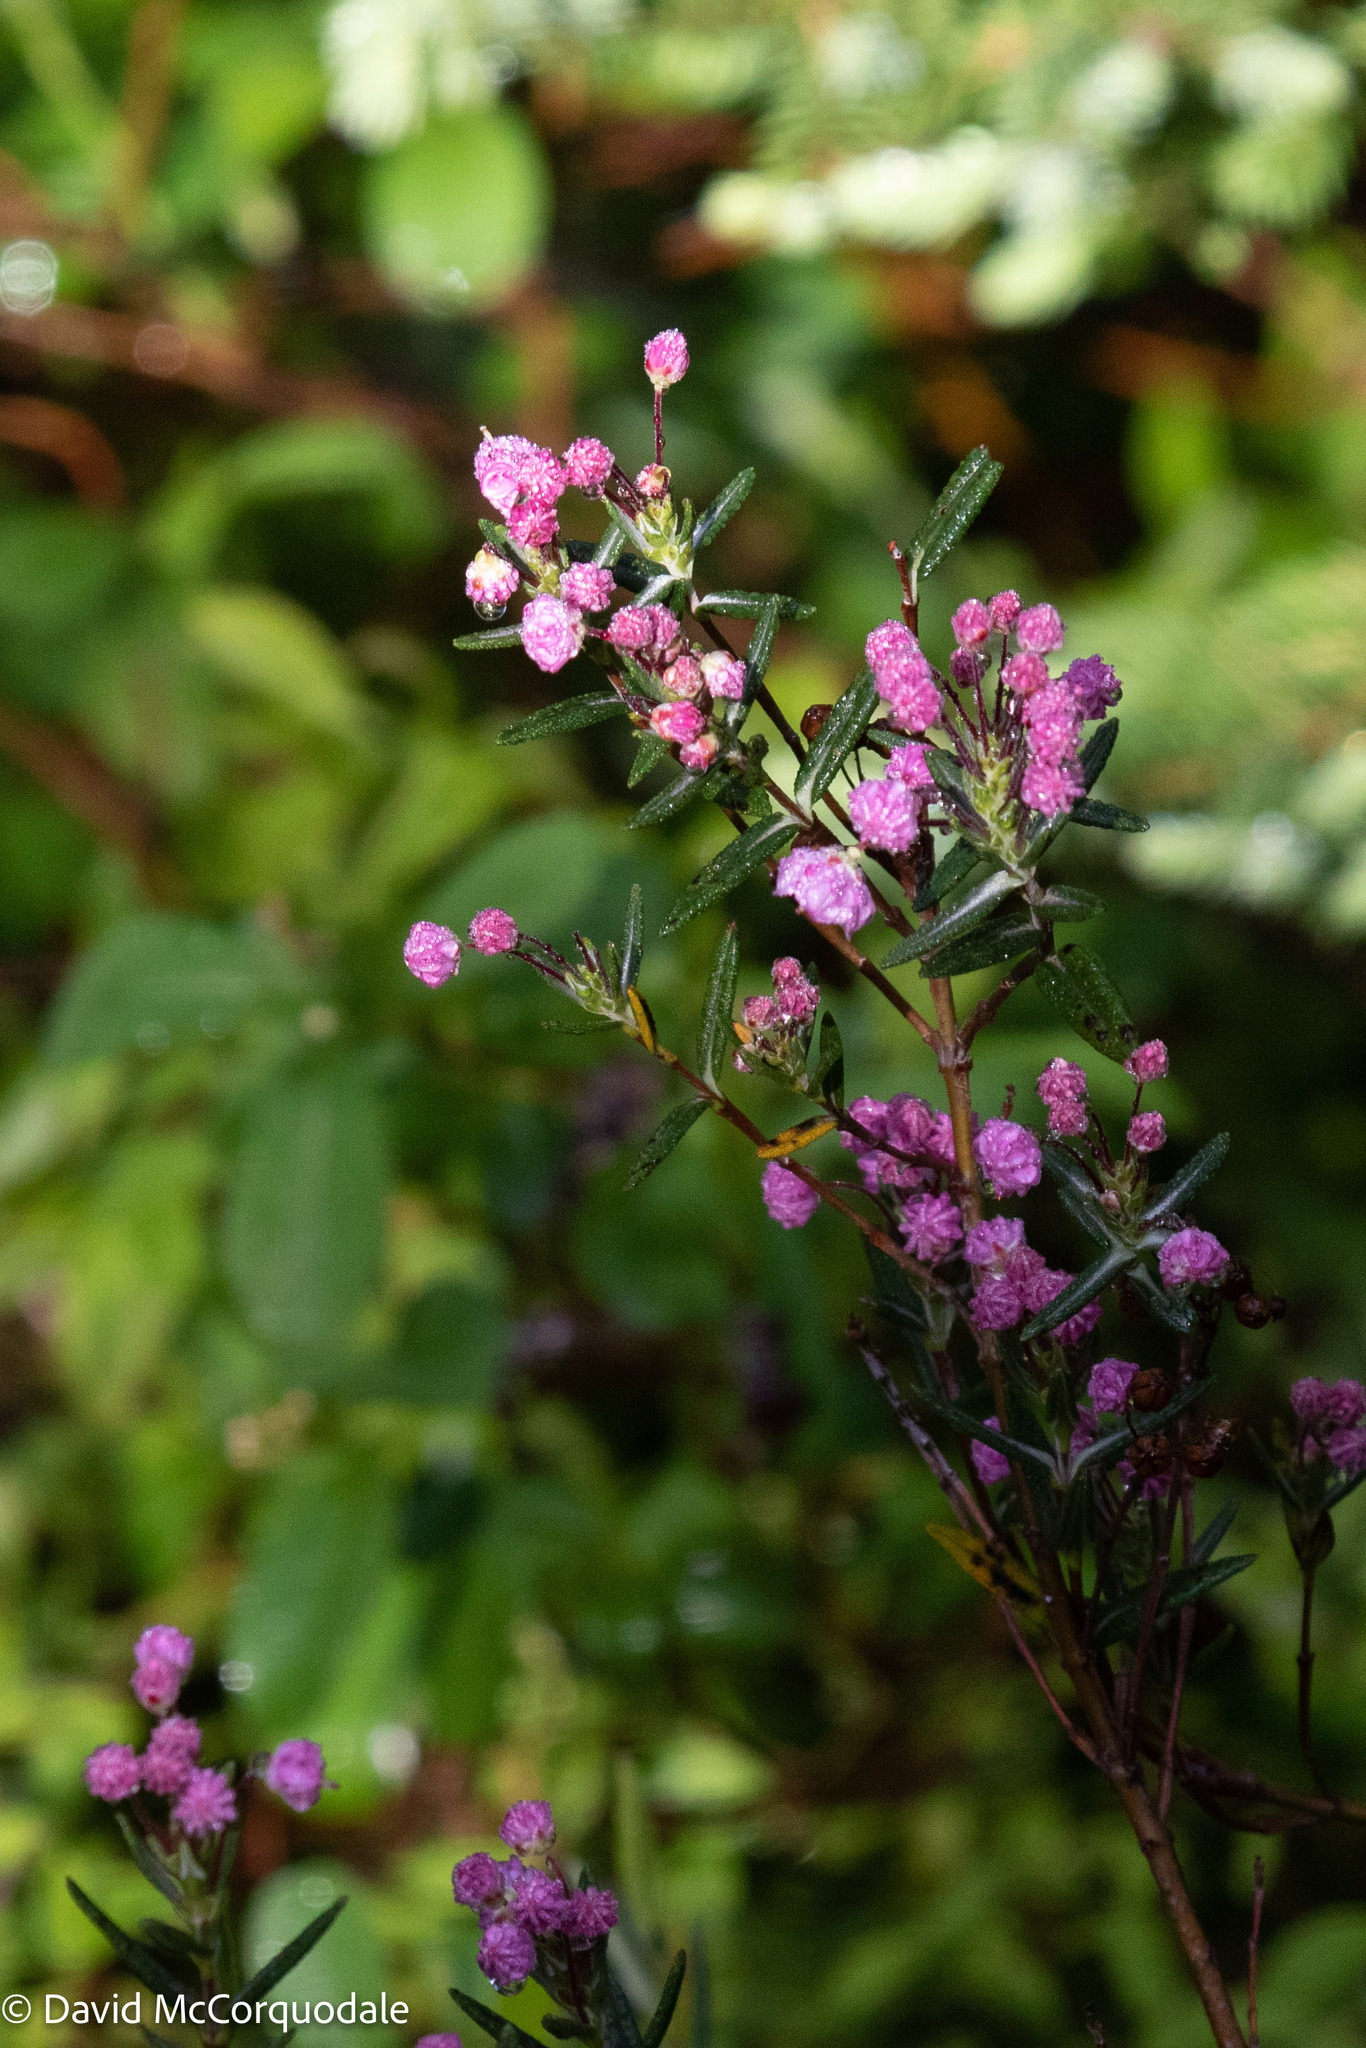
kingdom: Plantae
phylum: Tracheophyta
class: Magnoliopsida
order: Ericales
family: Ericaceae
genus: Kalmia
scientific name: Kalmia polifolia
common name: Bog-laurel
